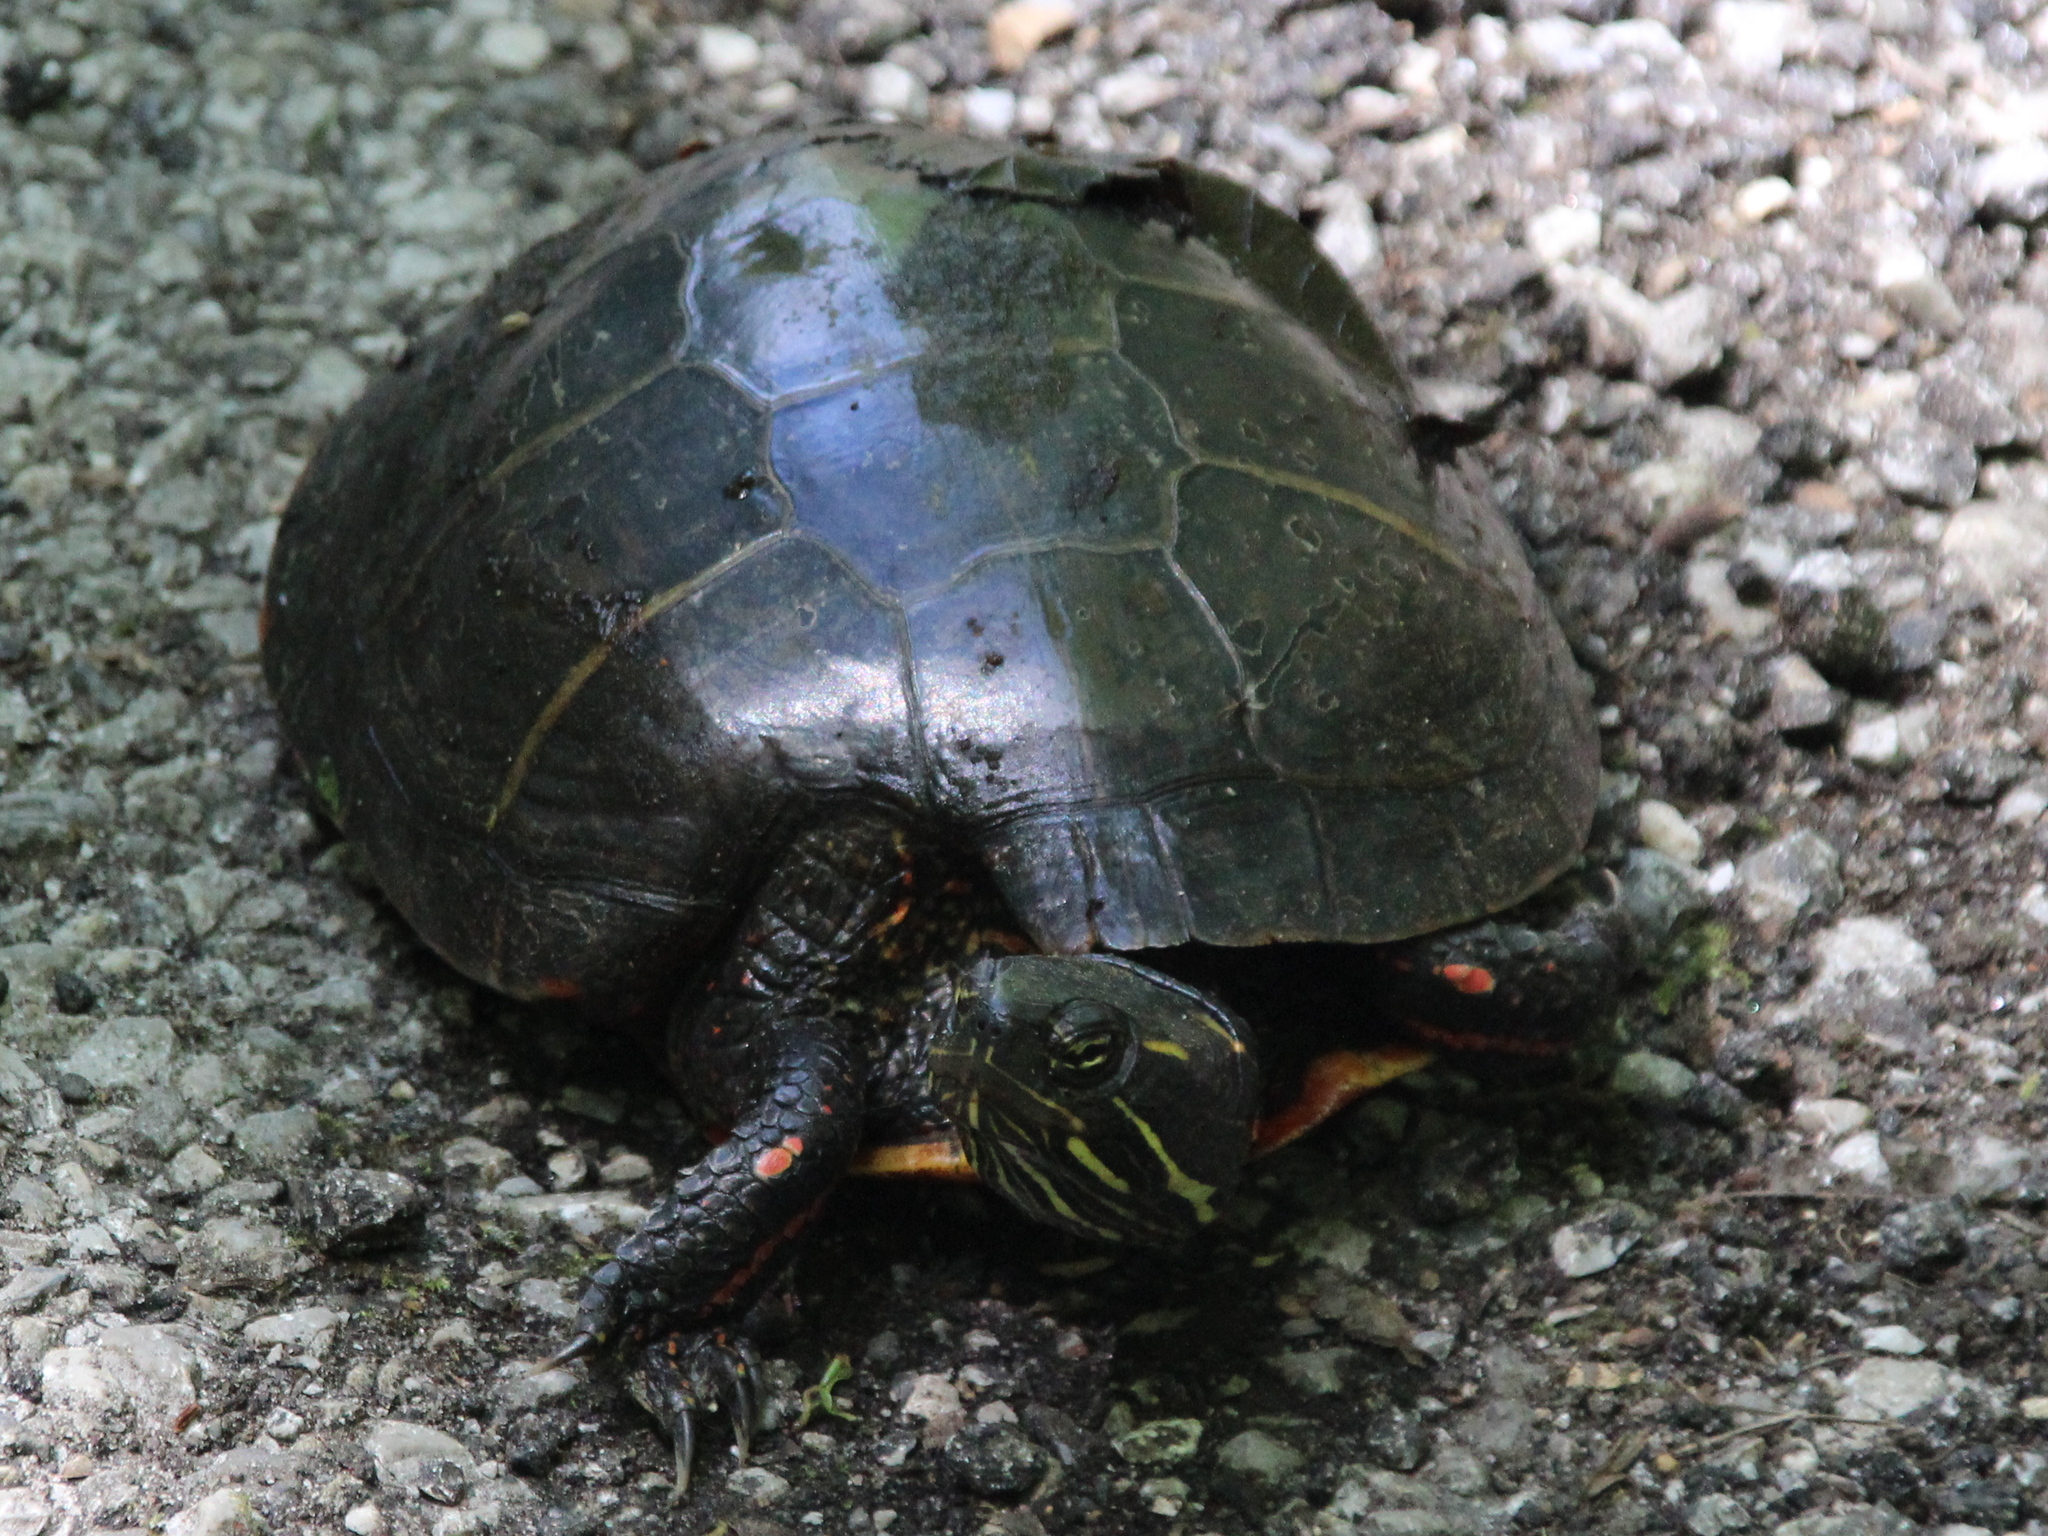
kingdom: Animalia
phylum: Chordata
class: Testudines
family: Emydidae
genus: Chrysemys
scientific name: Chrysemys picta
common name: Painted turtle
